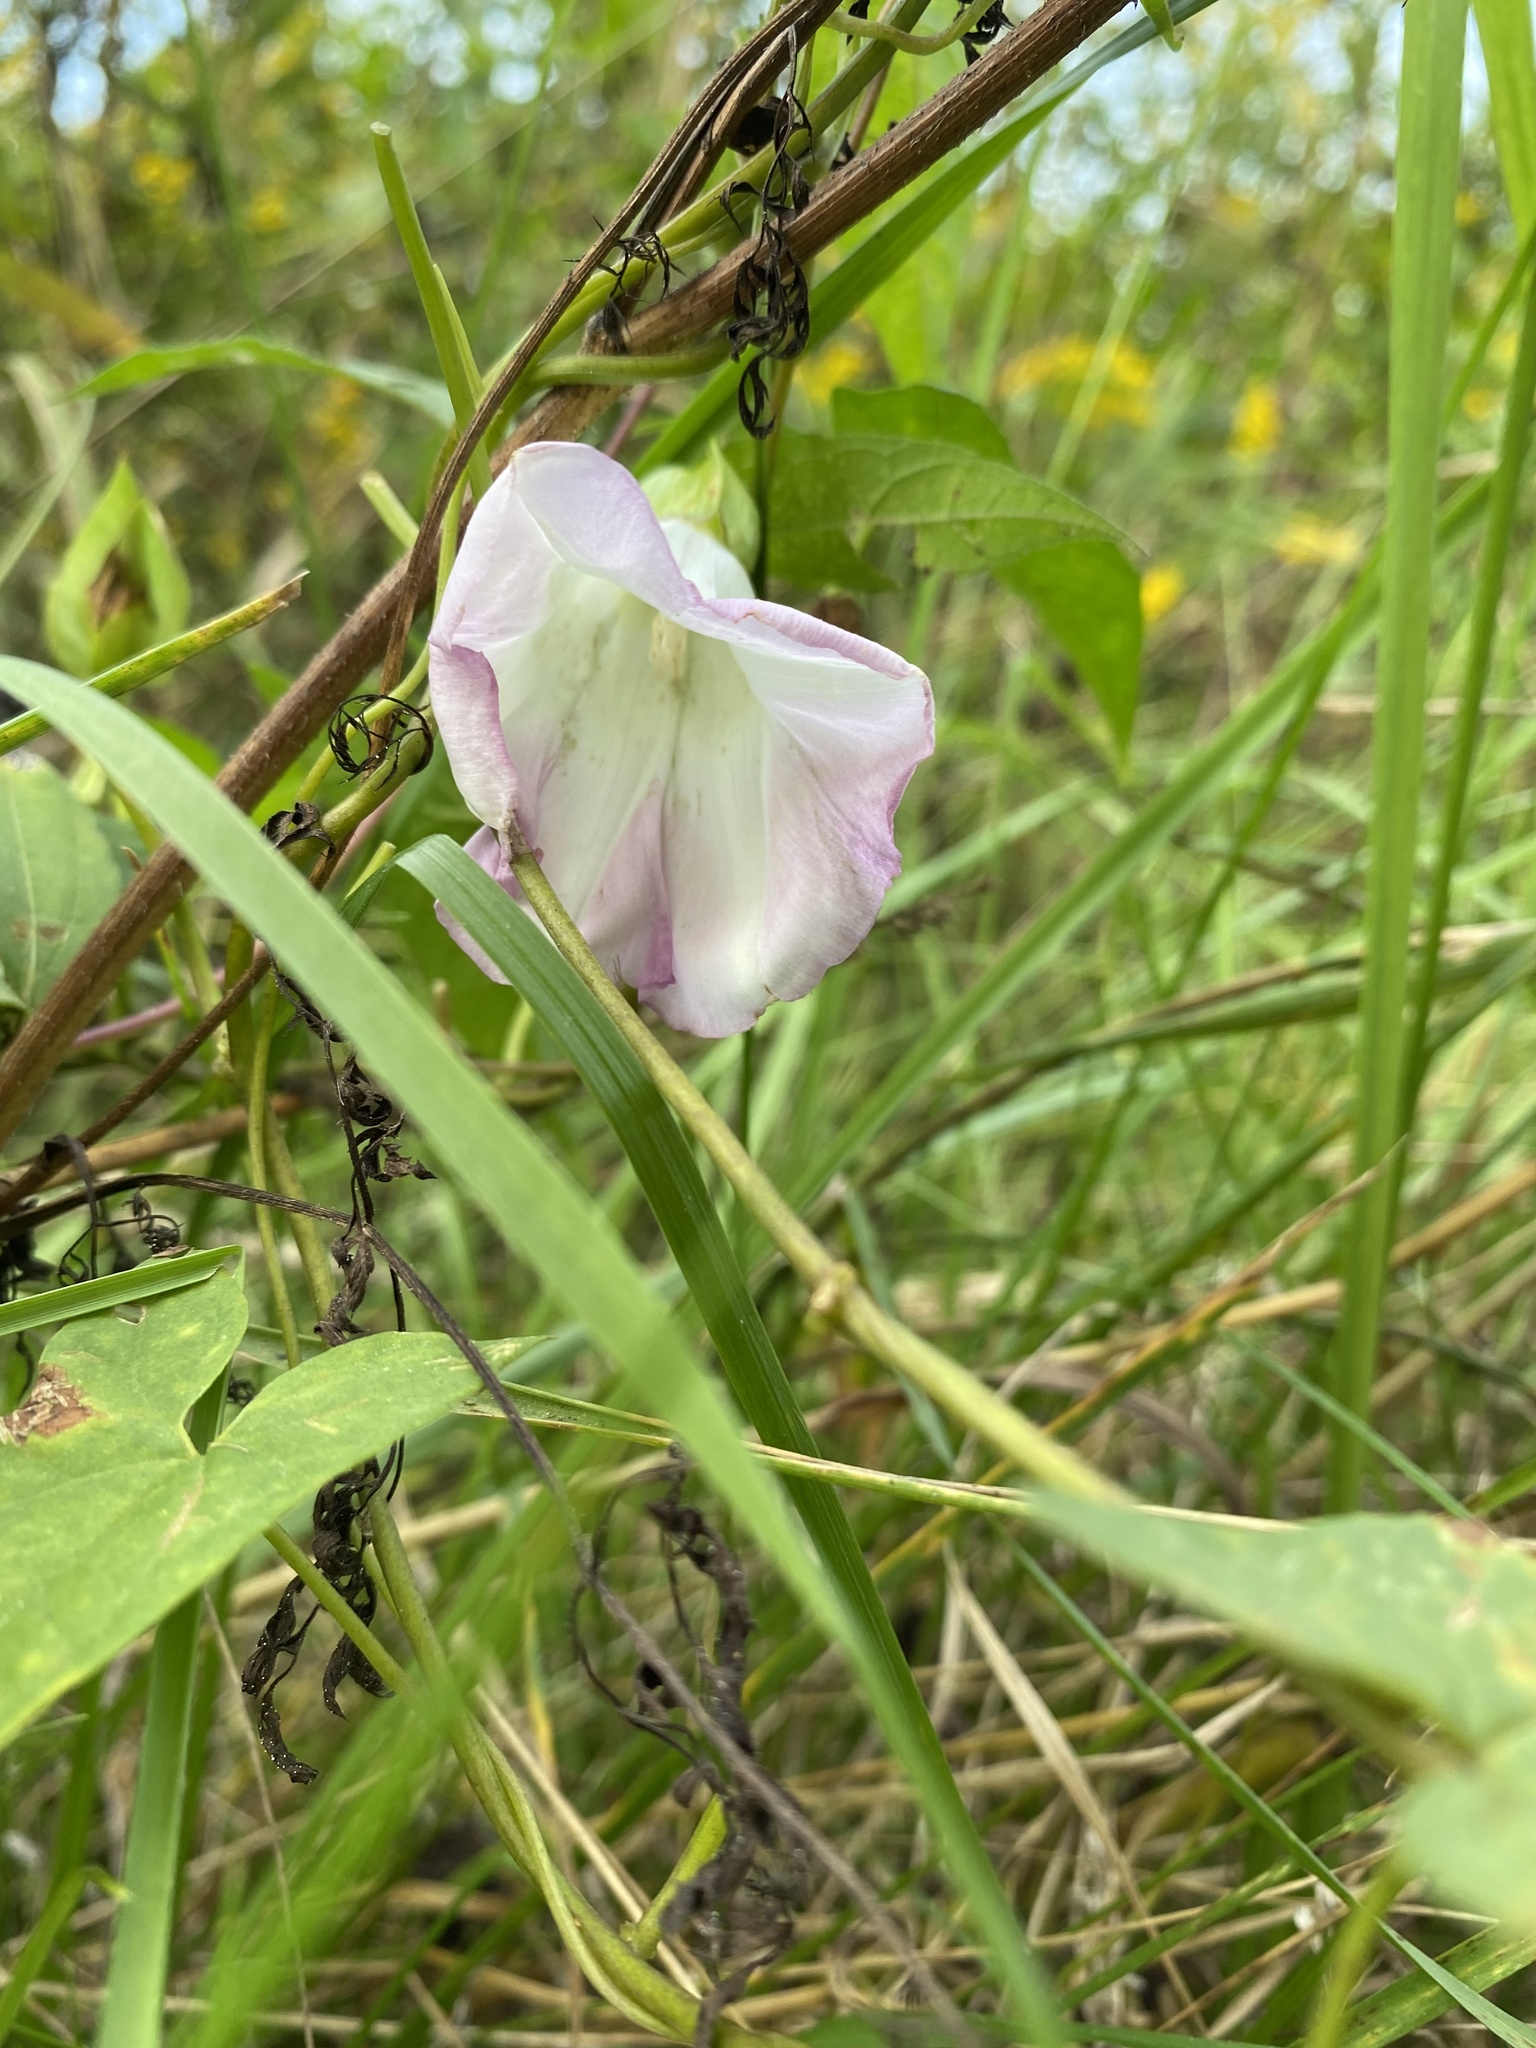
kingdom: Plantae
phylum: Tracheophyta
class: Magnoliopsida
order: Solanales
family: Convolvulaceae
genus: Calystegia
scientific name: Calystegia sepium
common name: Hedge bindweed
